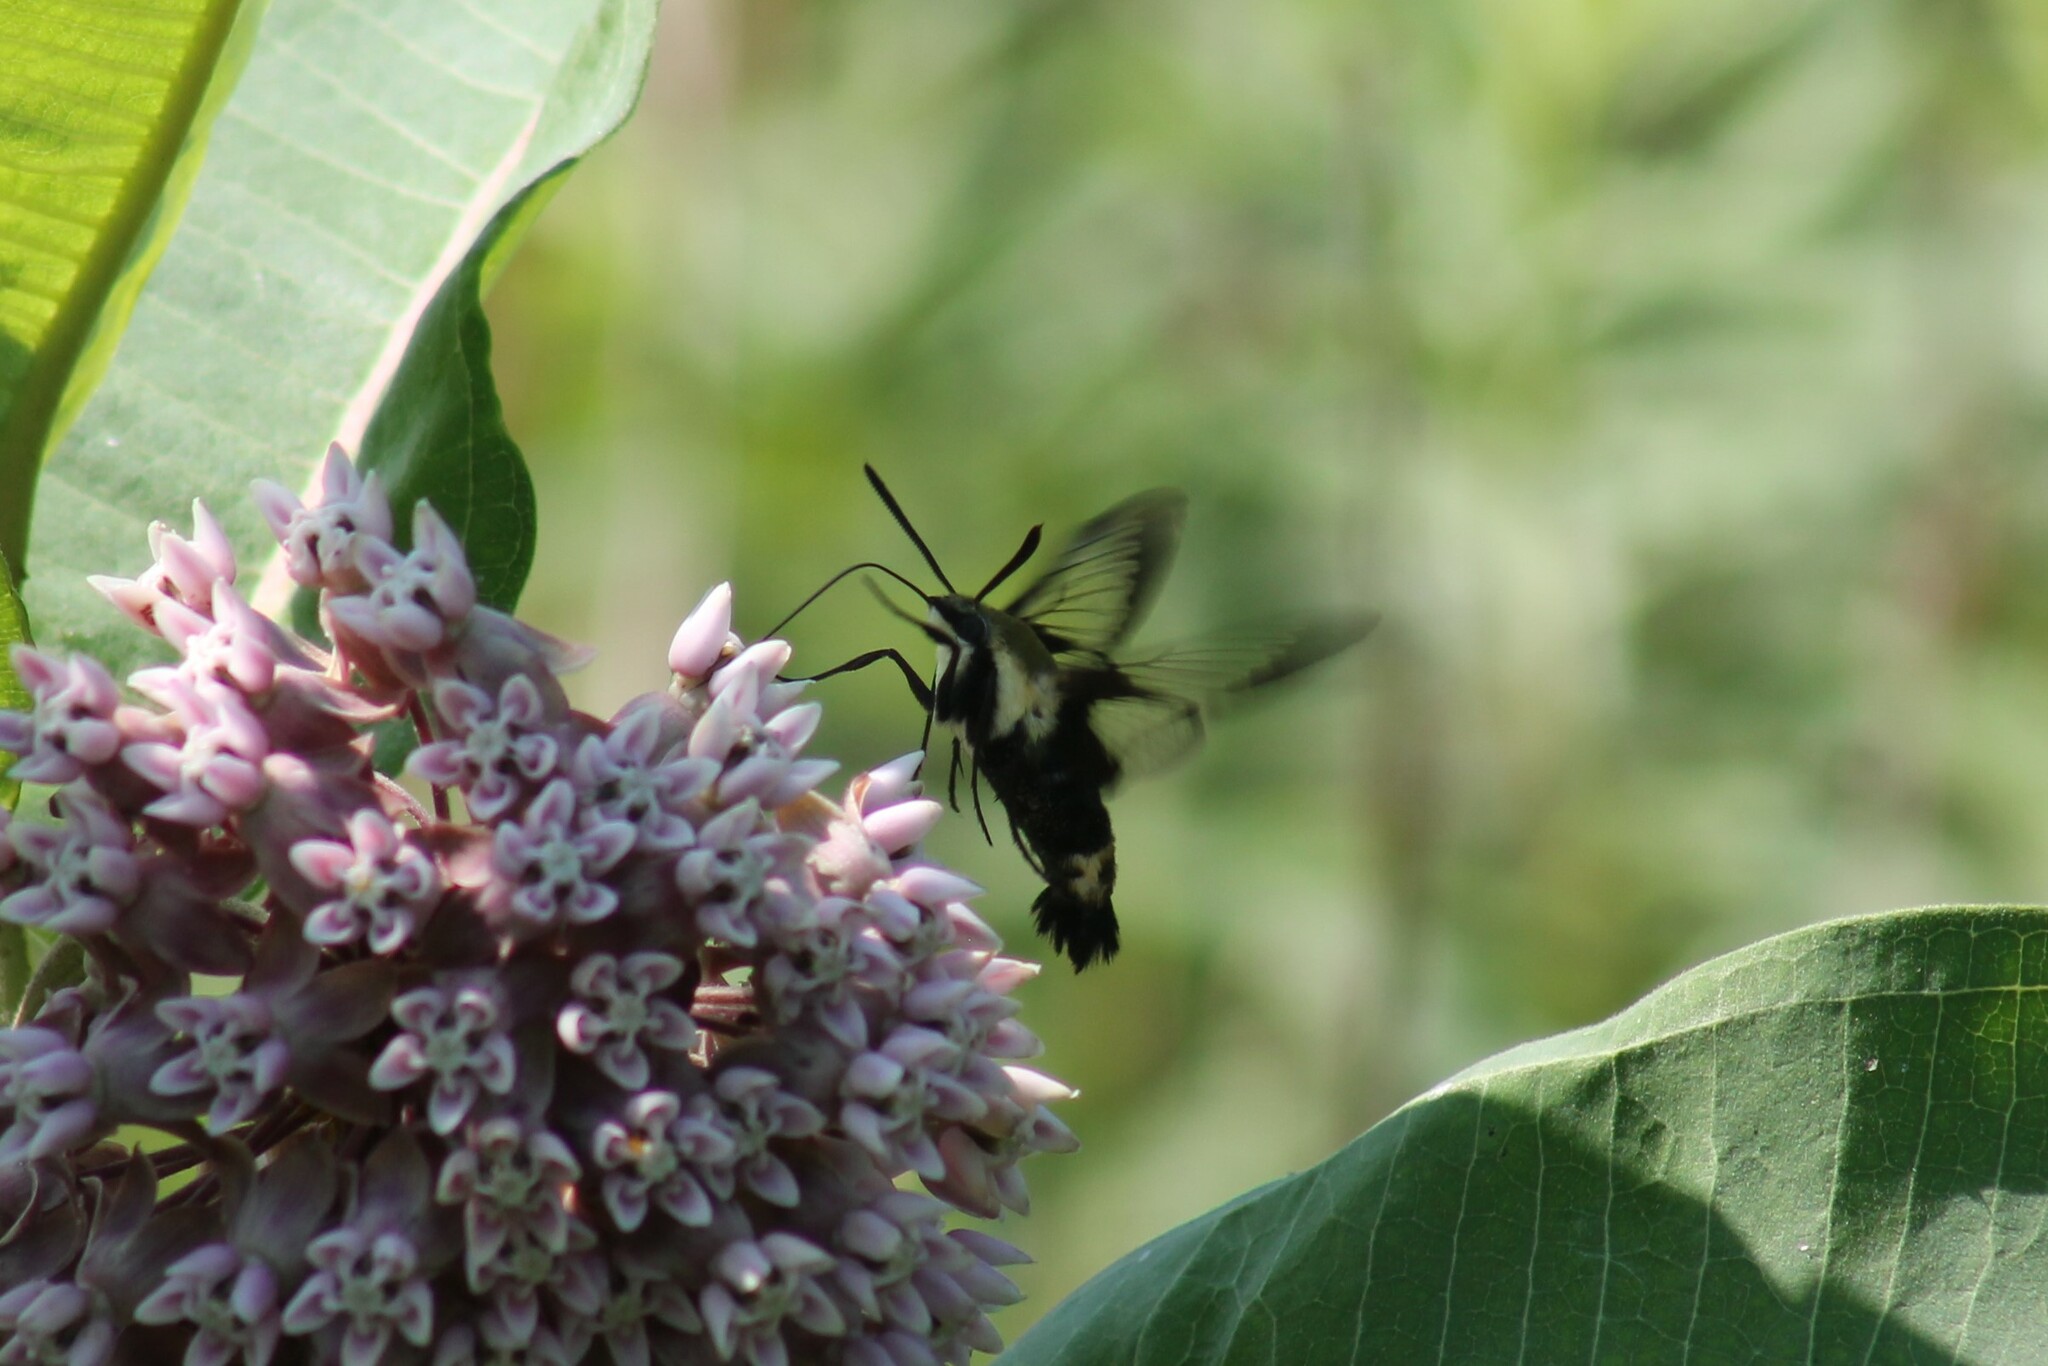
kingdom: Animalia
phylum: Arthropoda
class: Insecta
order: Lepidoptera
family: Sphingidae
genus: Hemaris
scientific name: Hemaris diffinis
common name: Bumblebee moth
